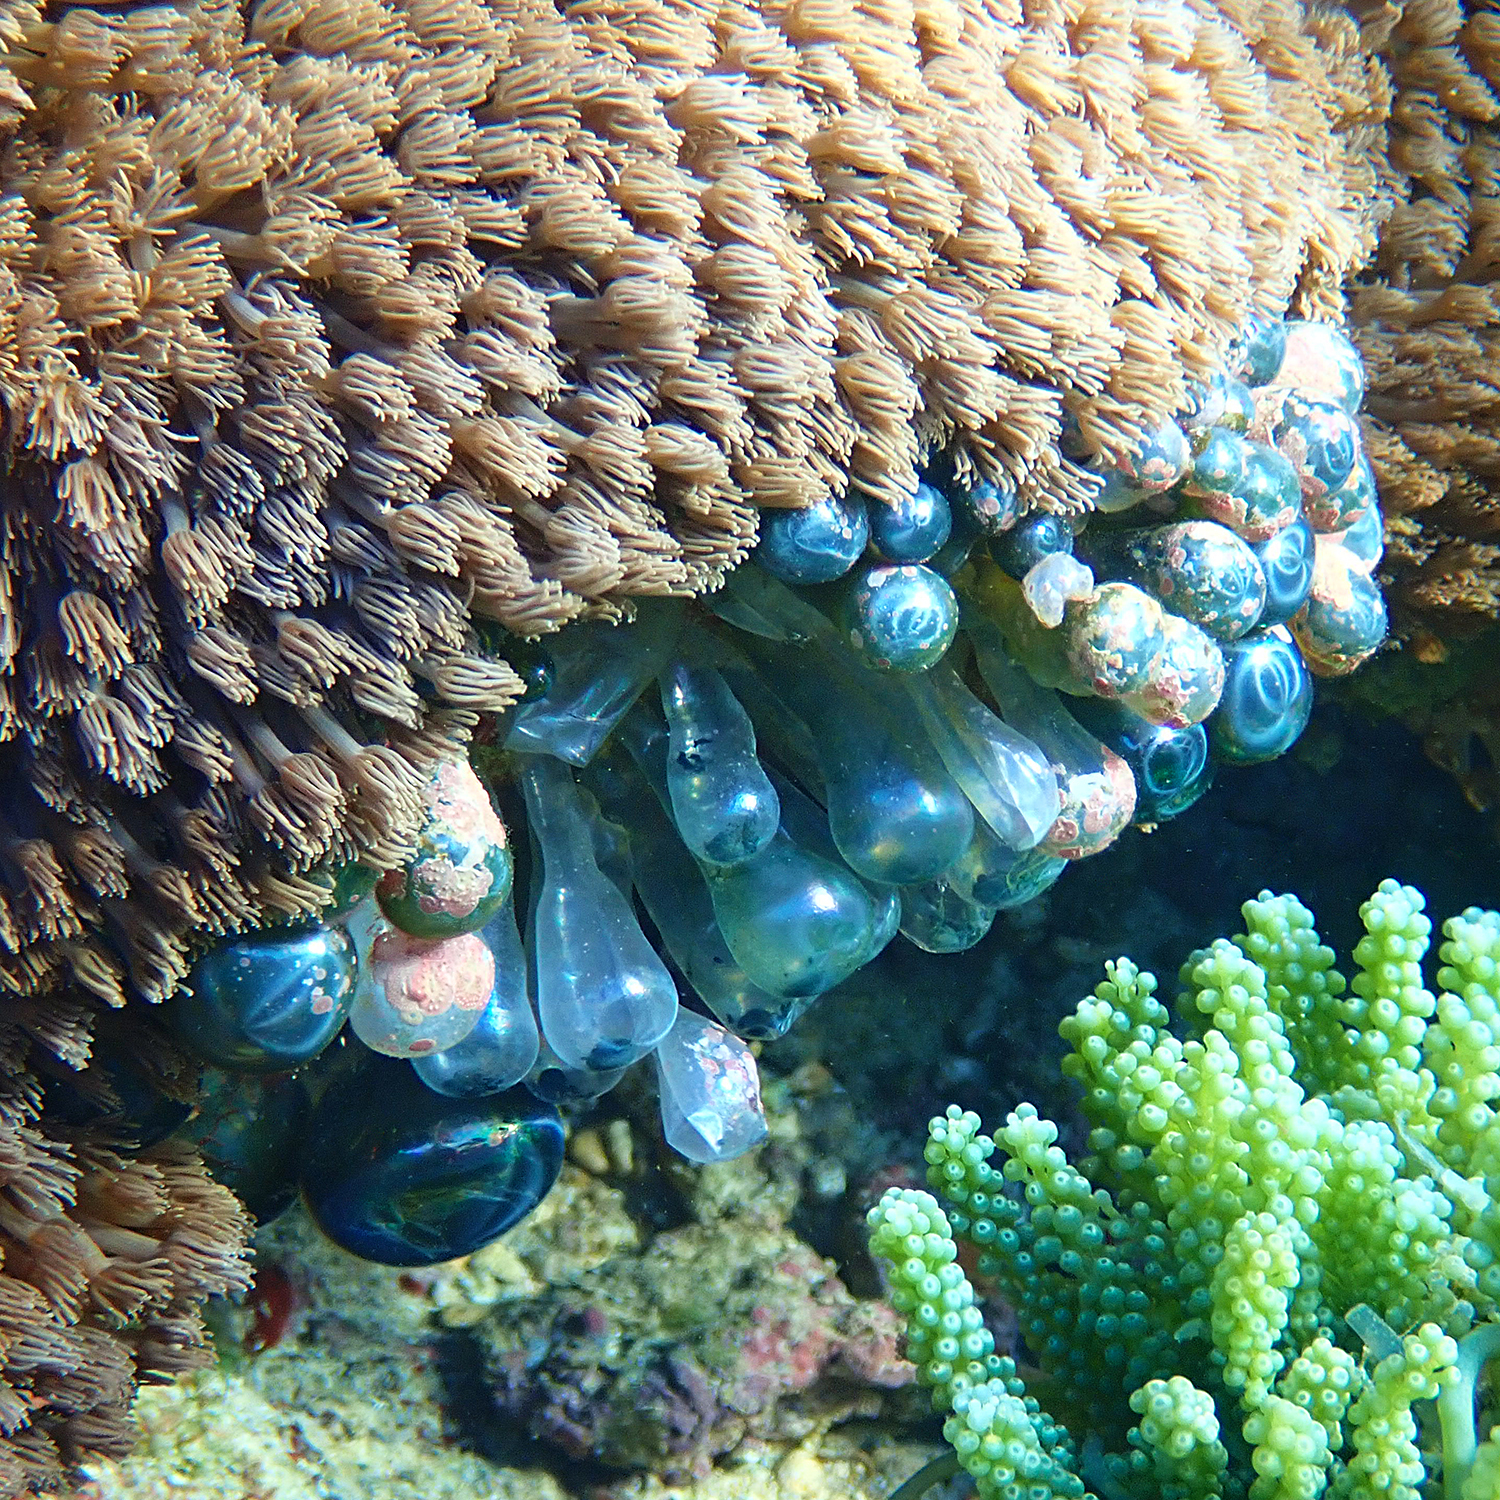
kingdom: Plantae
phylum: Chlorophyta
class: Ulvophyceae
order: Siphonocladales
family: Valoniaceae
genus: Valonia
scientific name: Valonia ventricosa
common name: Sea pearl
